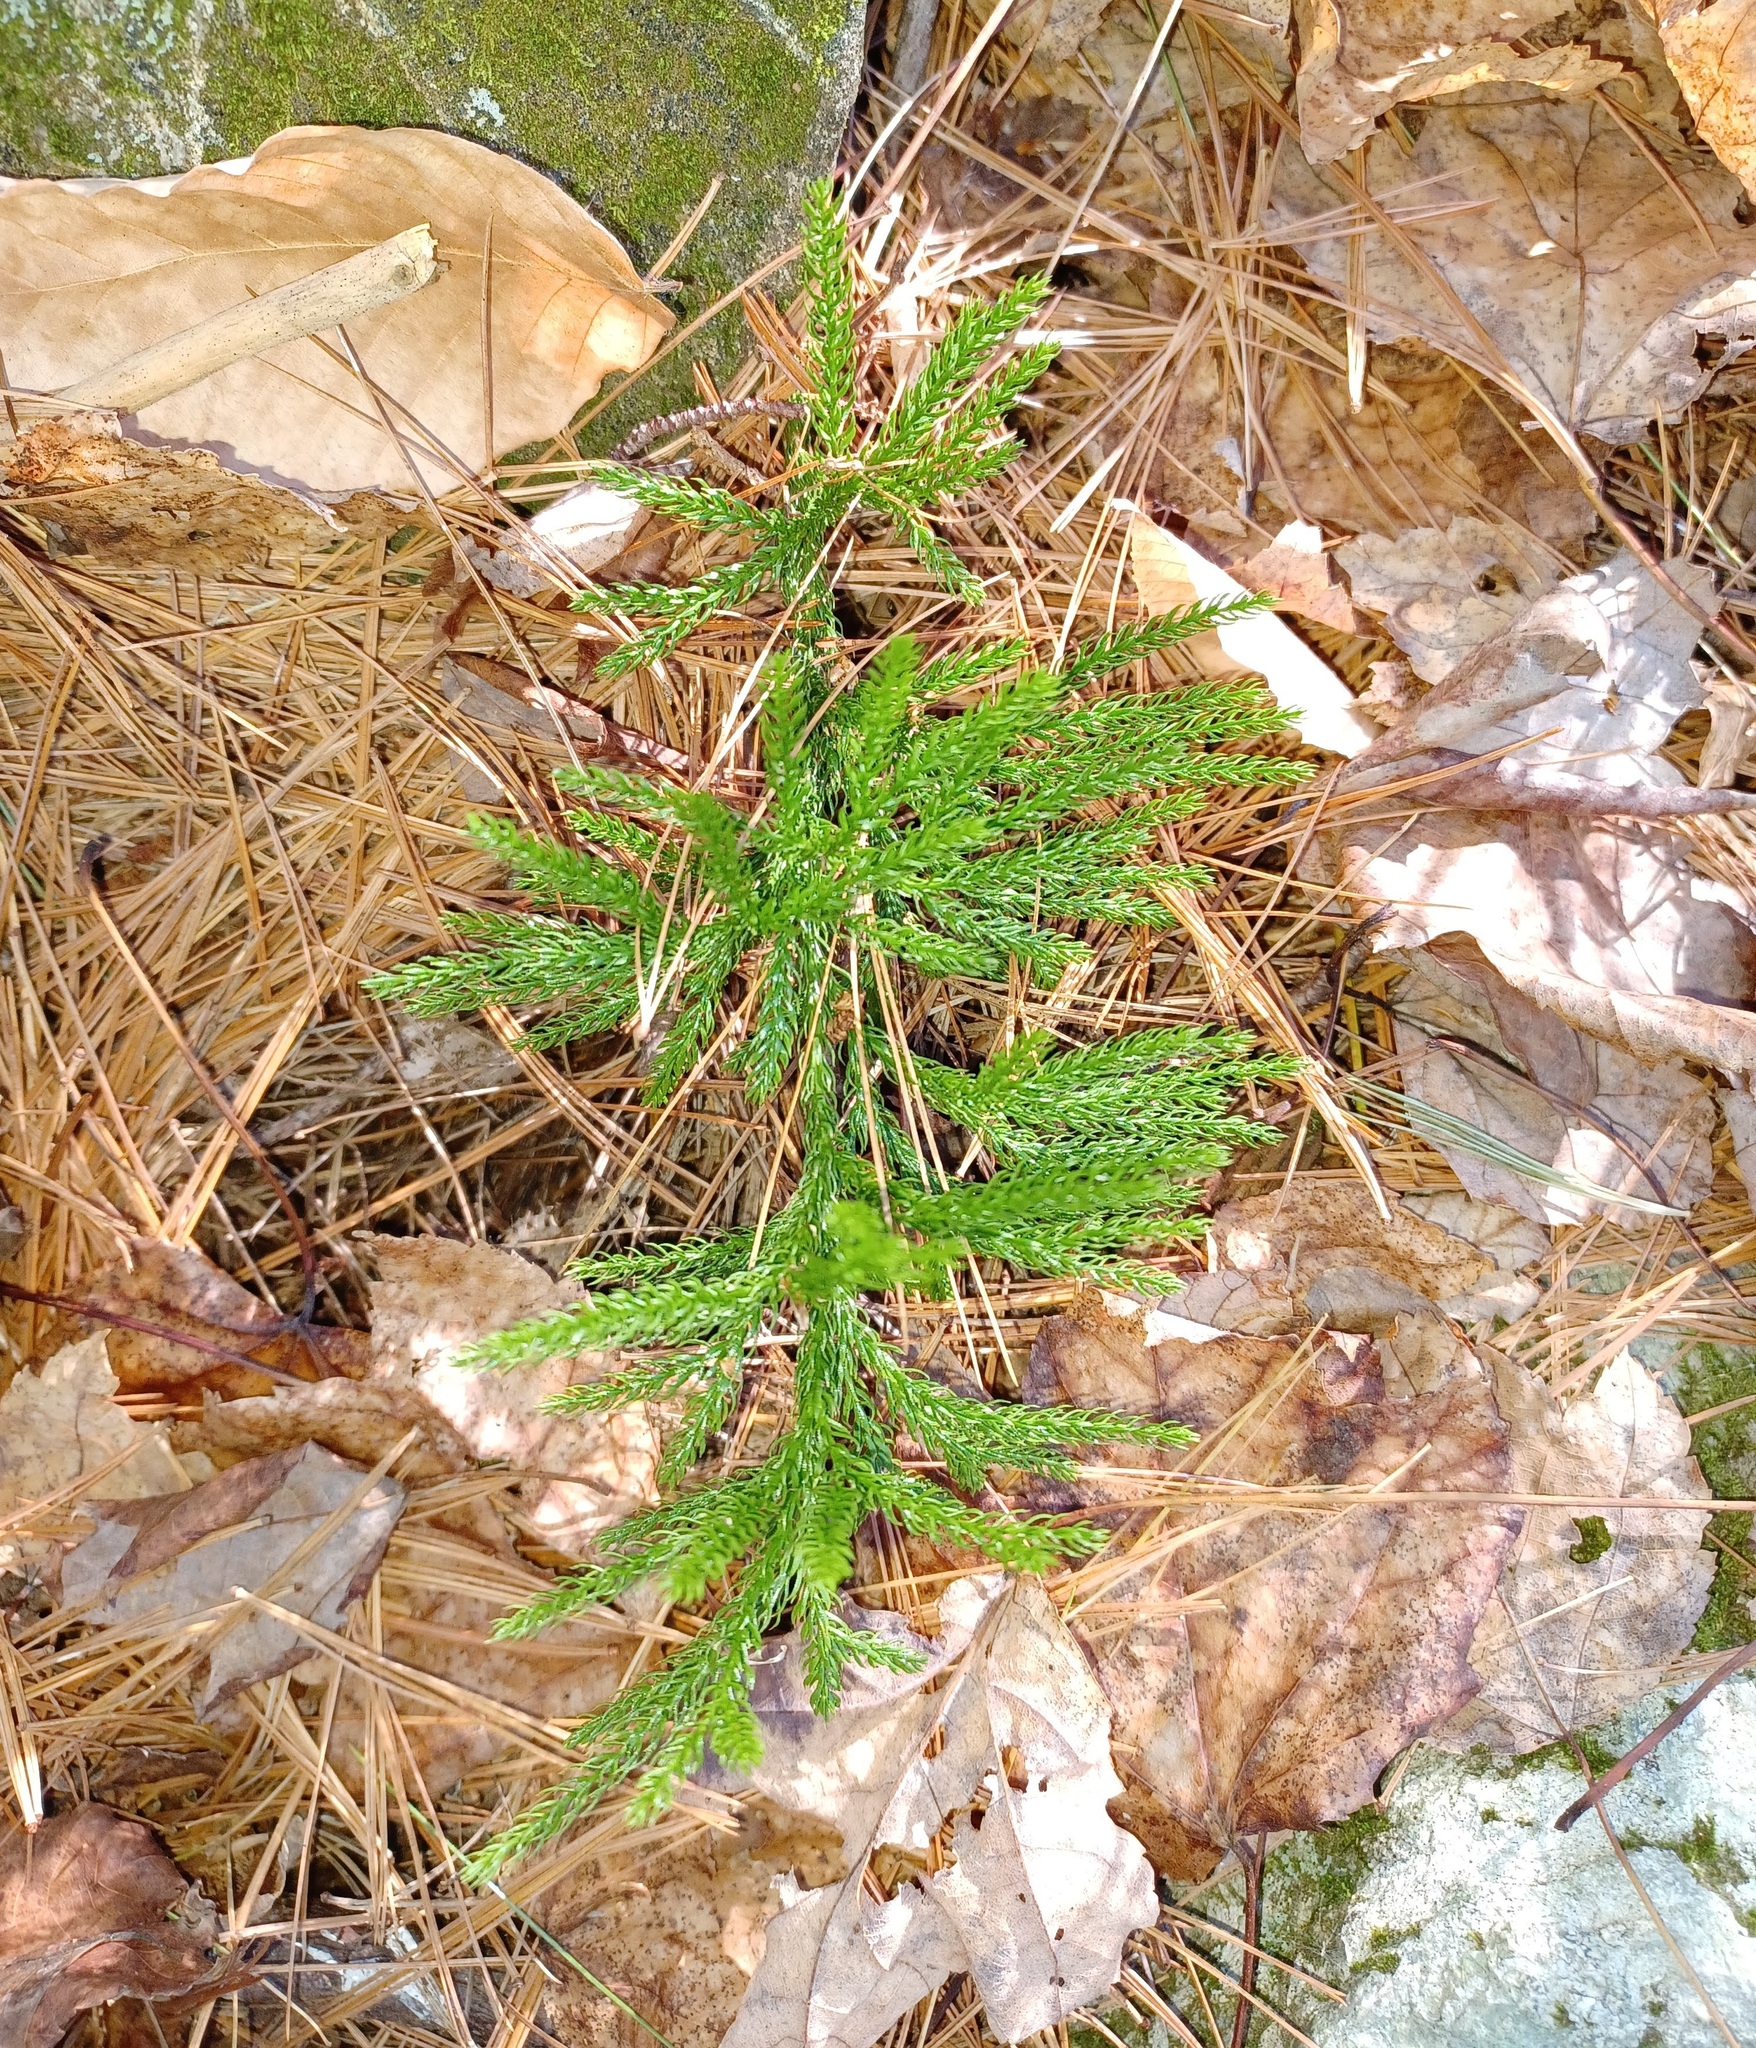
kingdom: Plantae
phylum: Tracheophyta
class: Lycopodiopsida
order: Lycopodiales
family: Lycopodiaceae
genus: Dendrolycopodium
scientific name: Dendrolycopodium hickeyi
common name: Hickey's clubmoss
